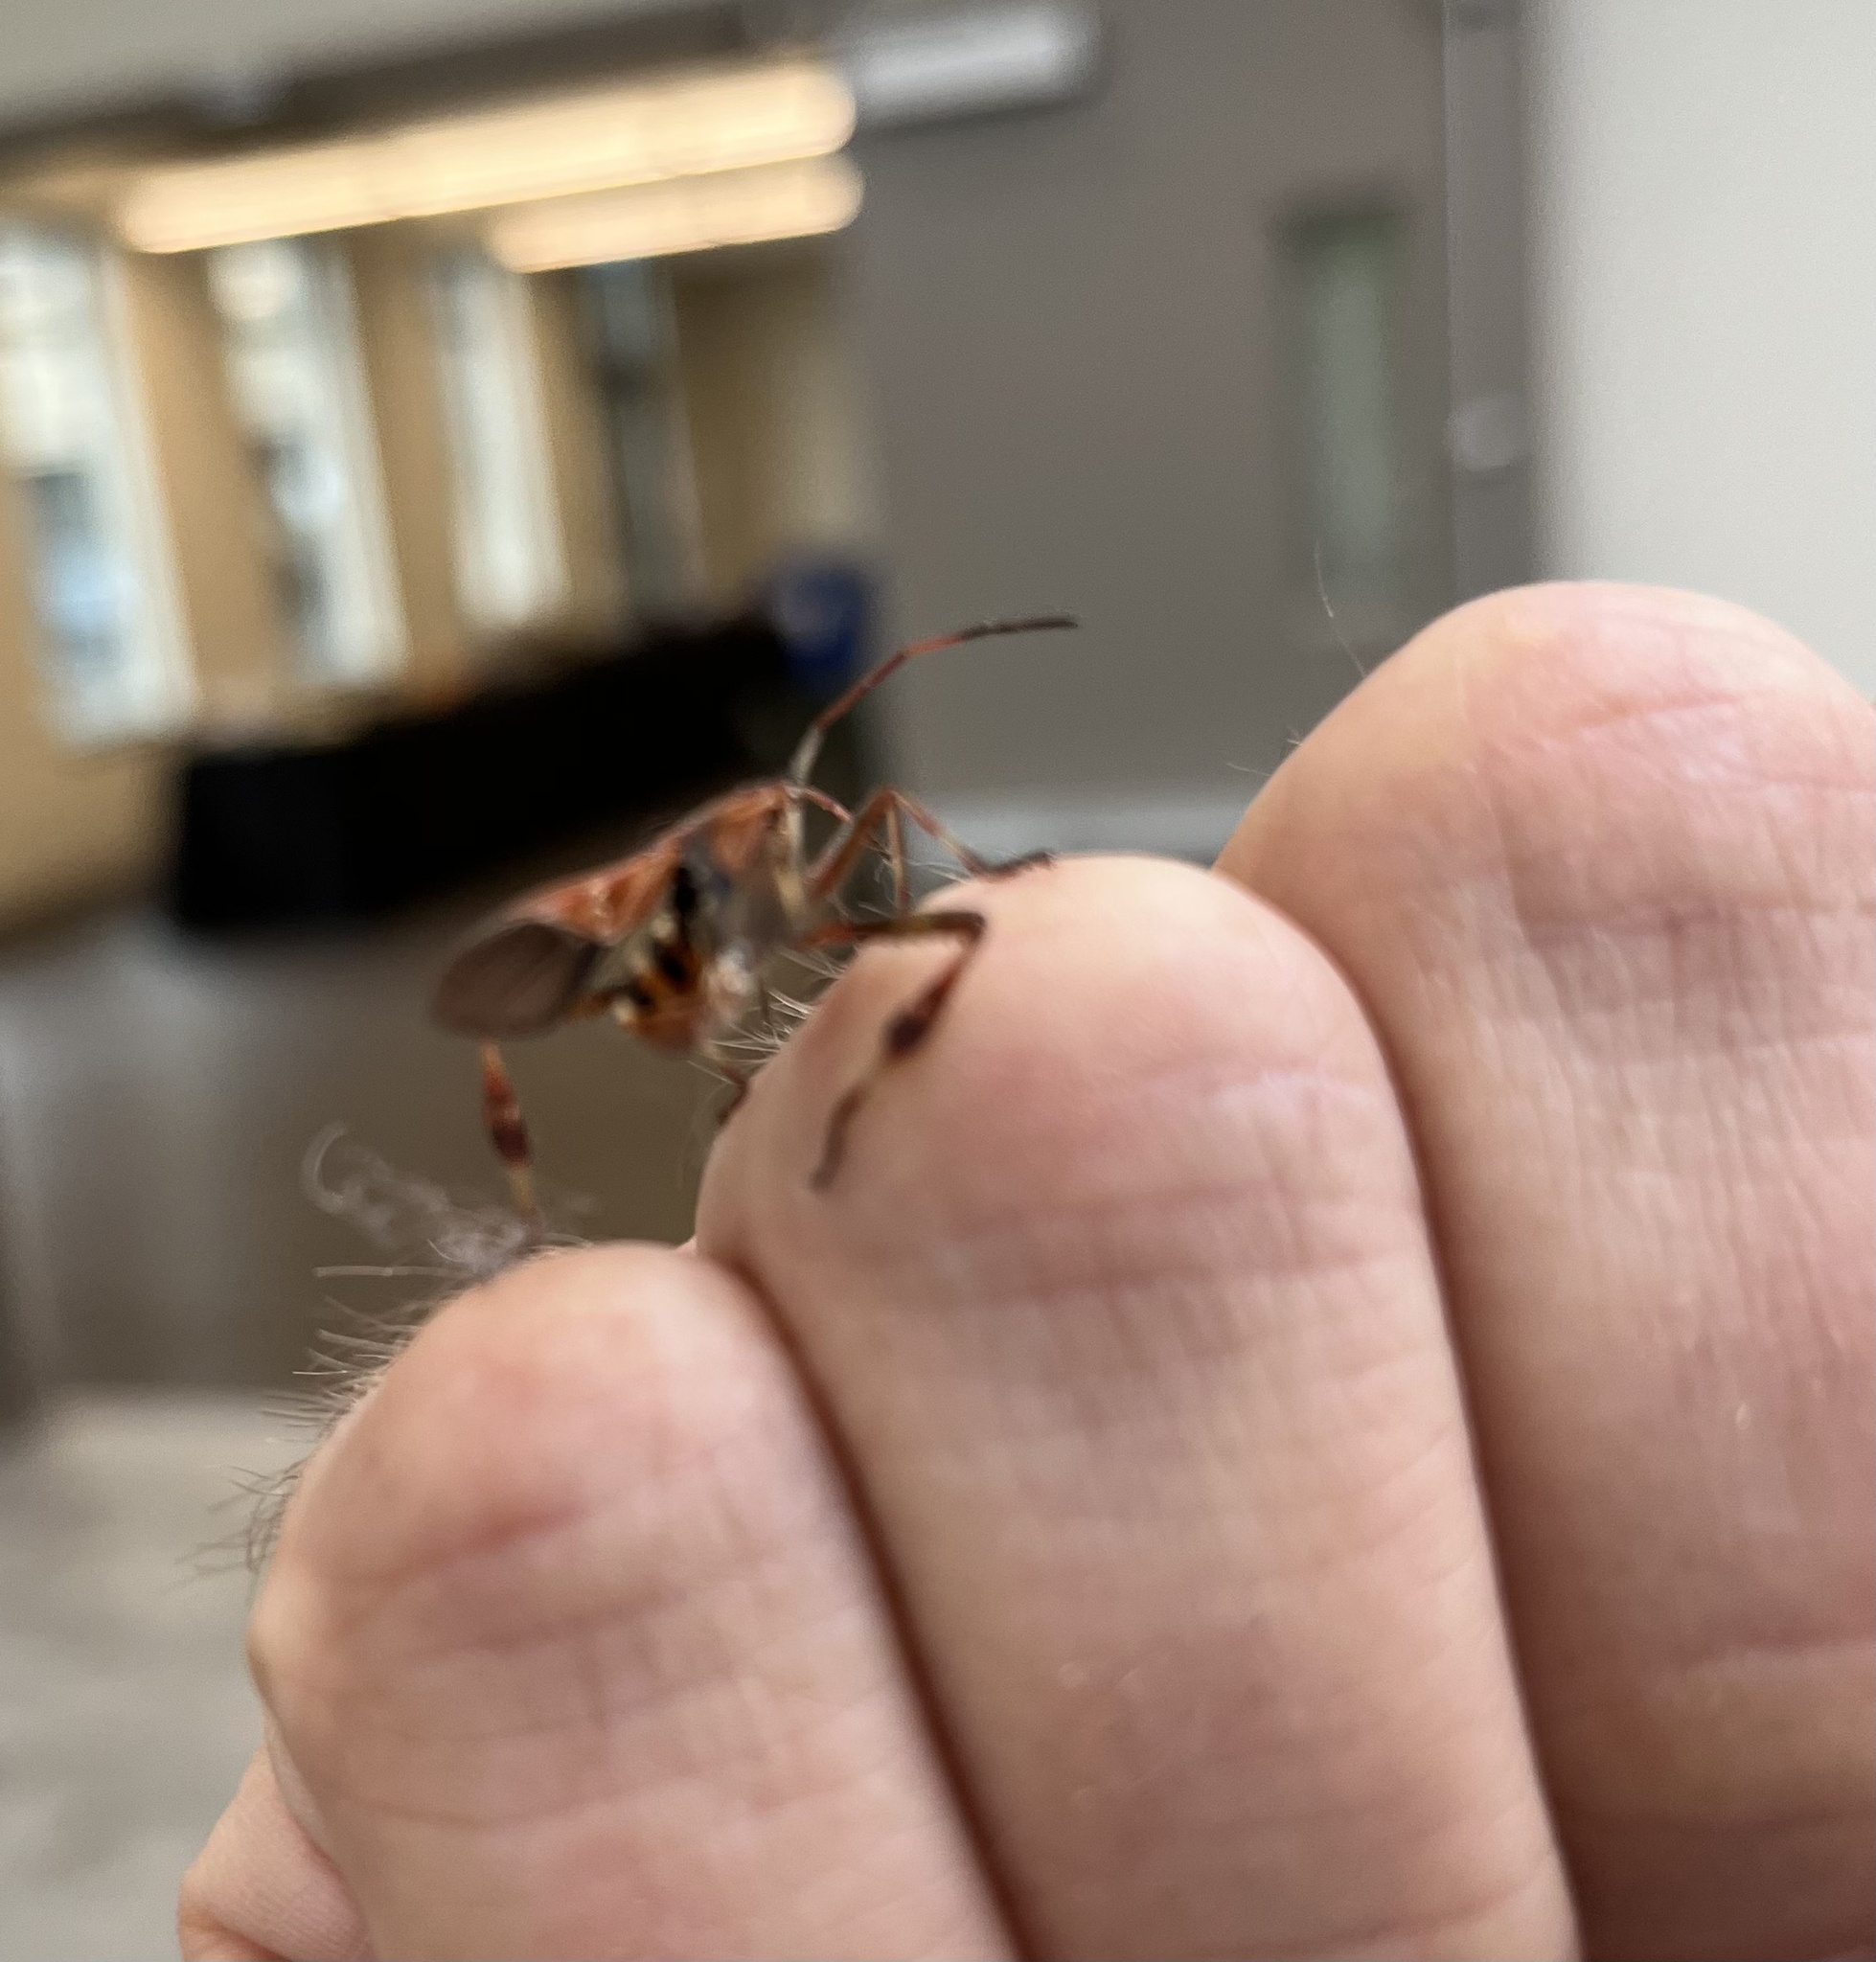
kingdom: Animalia
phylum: Arthropoda
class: Insecta
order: Hemiptera
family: Coreidae
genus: Leptoglossus
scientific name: Leptoglossus occidentalis
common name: Western conifer-seed bug
